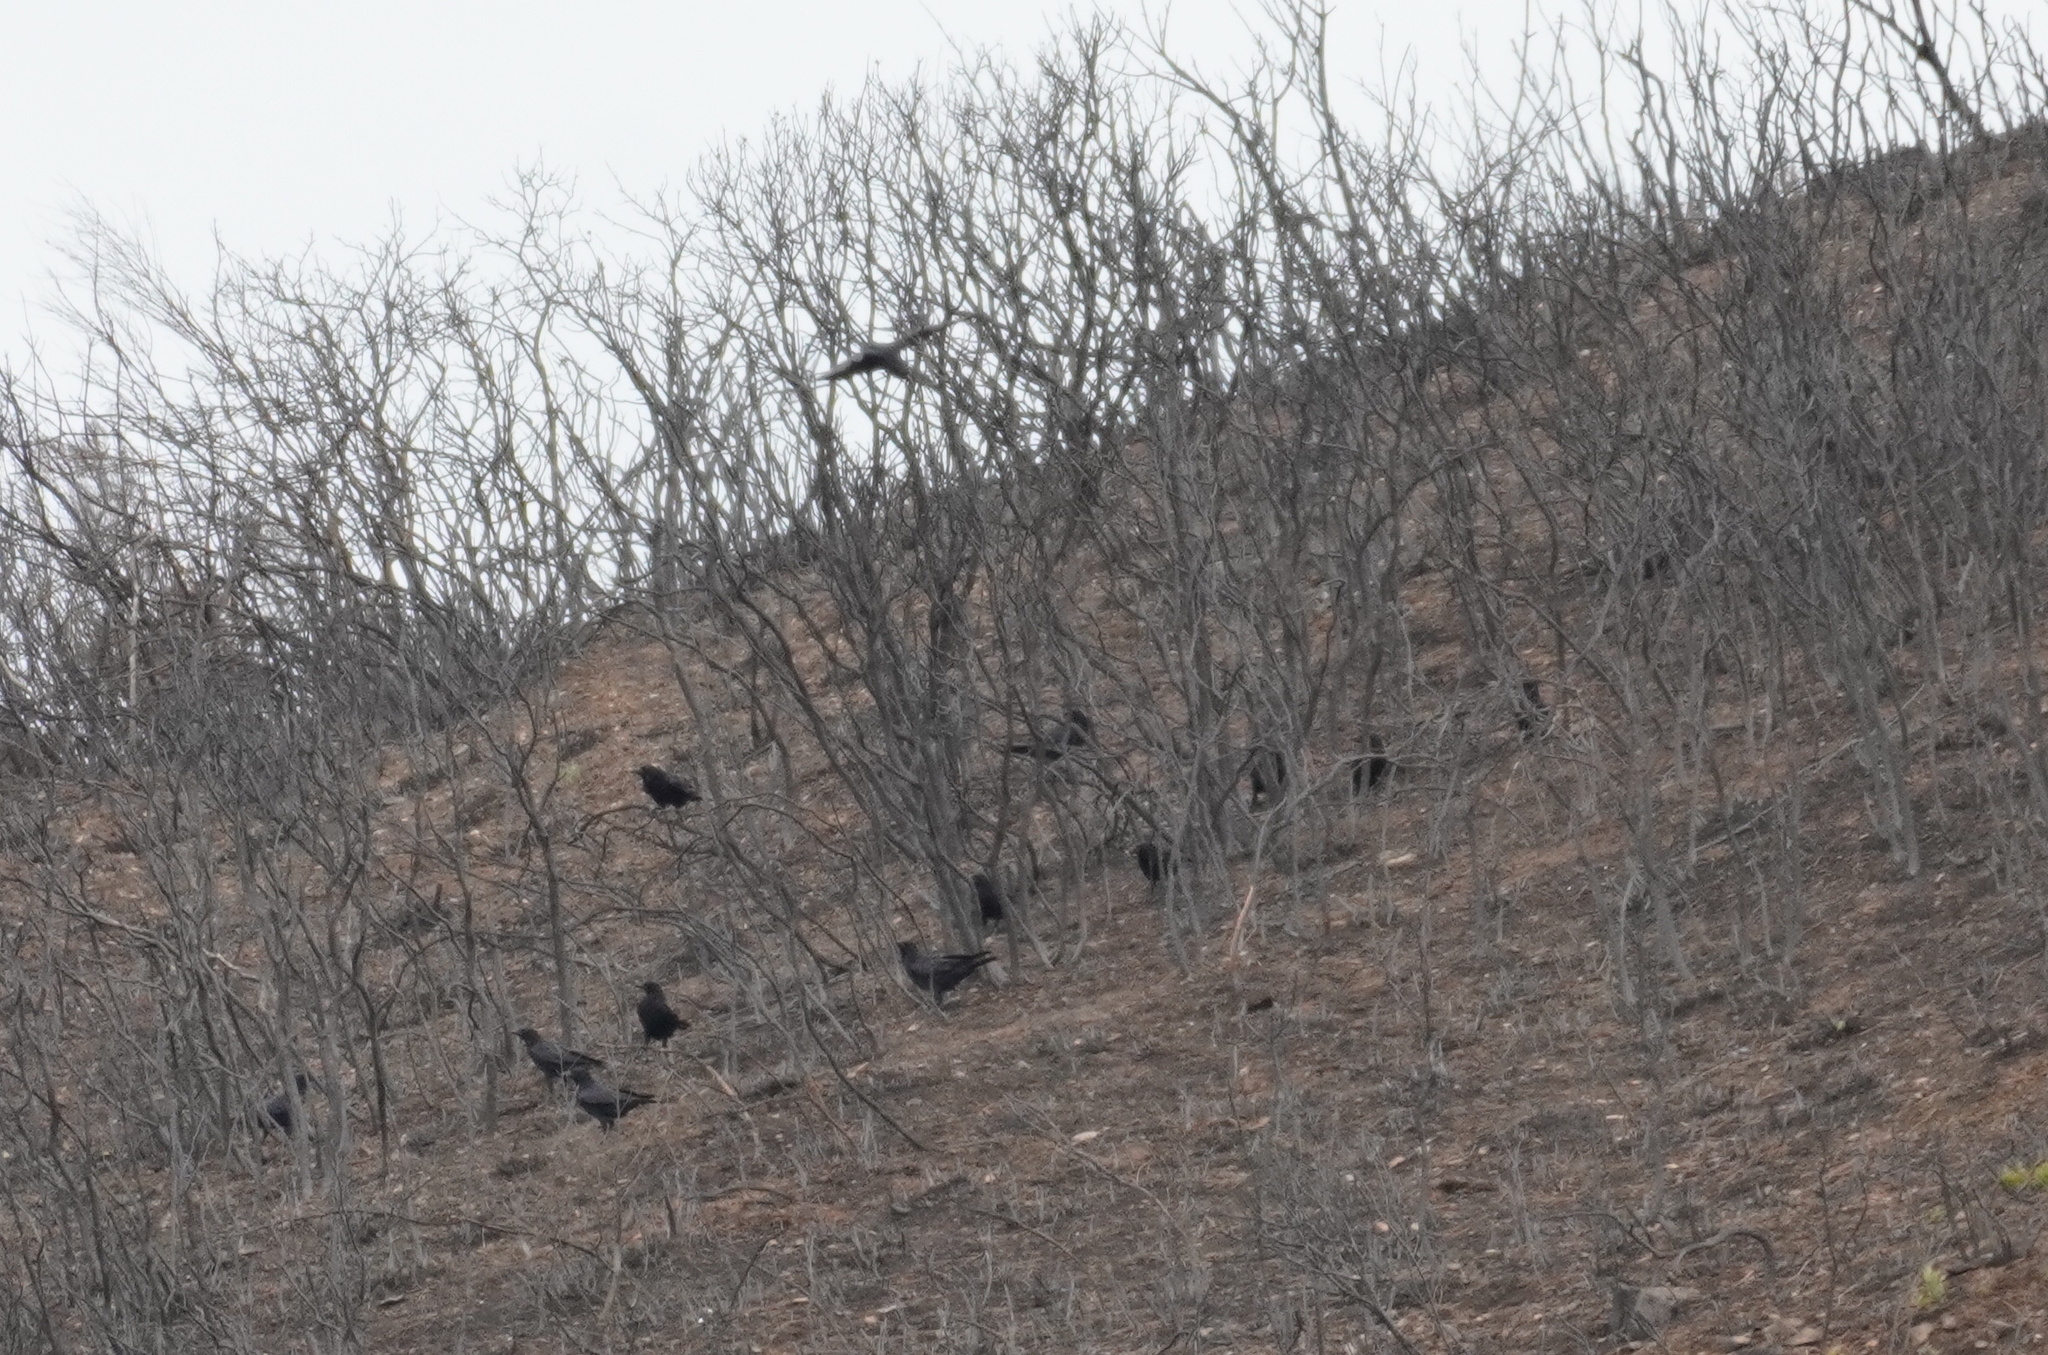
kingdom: Animalia
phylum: Chordata
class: Aves
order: Passeriformes
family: Sturnidae
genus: Sturnus
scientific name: Sturnus unicolor
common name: Spotless starling
